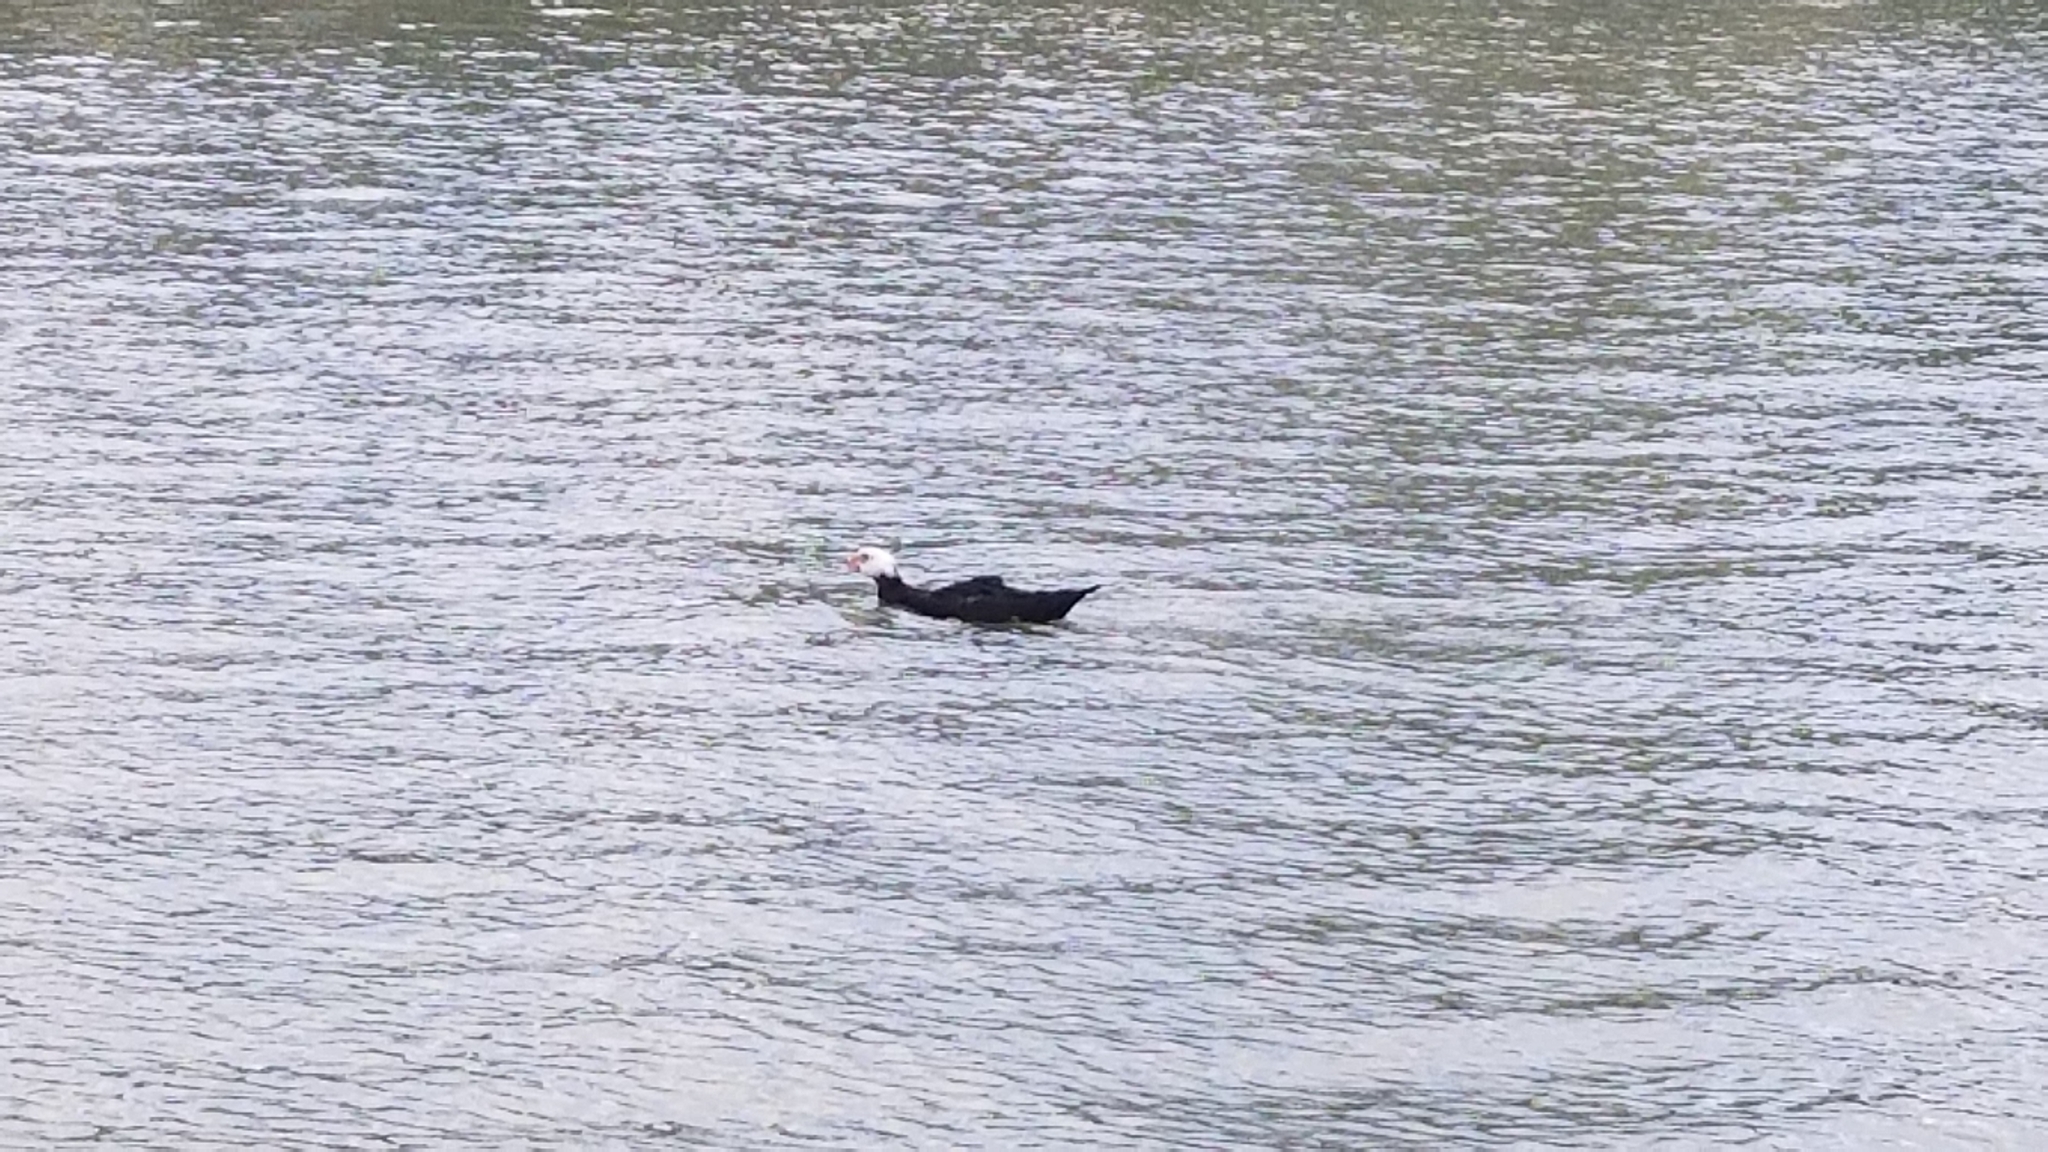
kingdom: Animalia
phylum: Chordata
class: Aves
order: Anseriformes
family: Anatidae
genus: Cairina
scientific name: Cairina moschata
